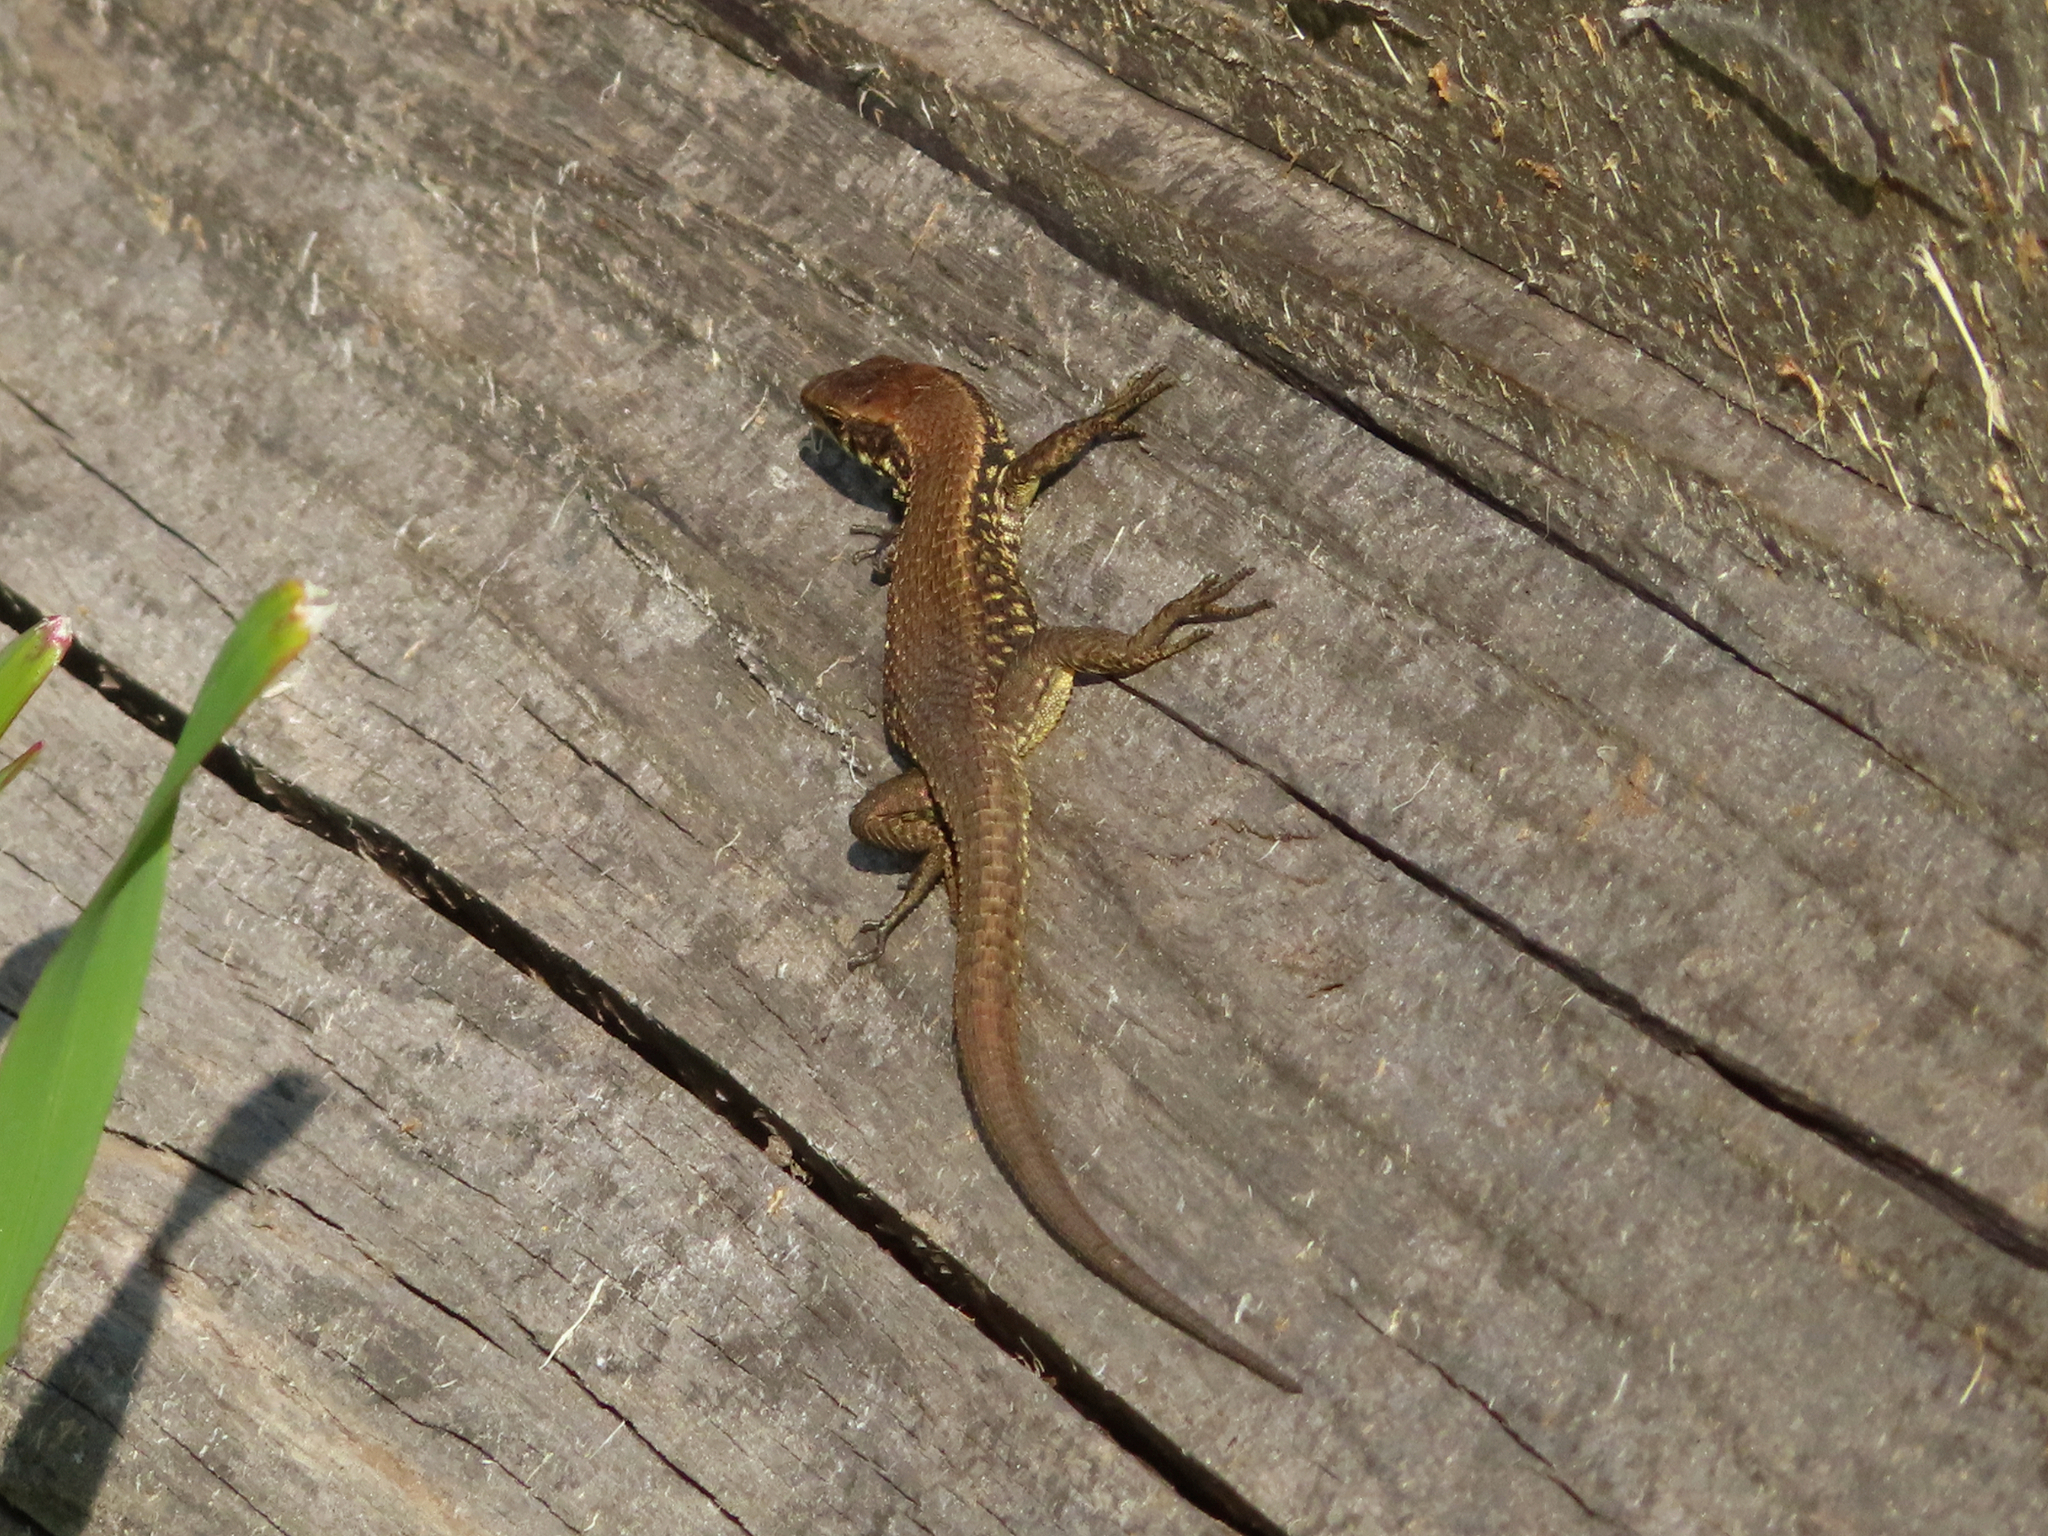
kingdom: Animalia
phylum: Chordata
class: Squamata
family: Lacertidae
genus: Algyroides
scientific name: Algyroides moreoticus
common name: Greek algyroides
